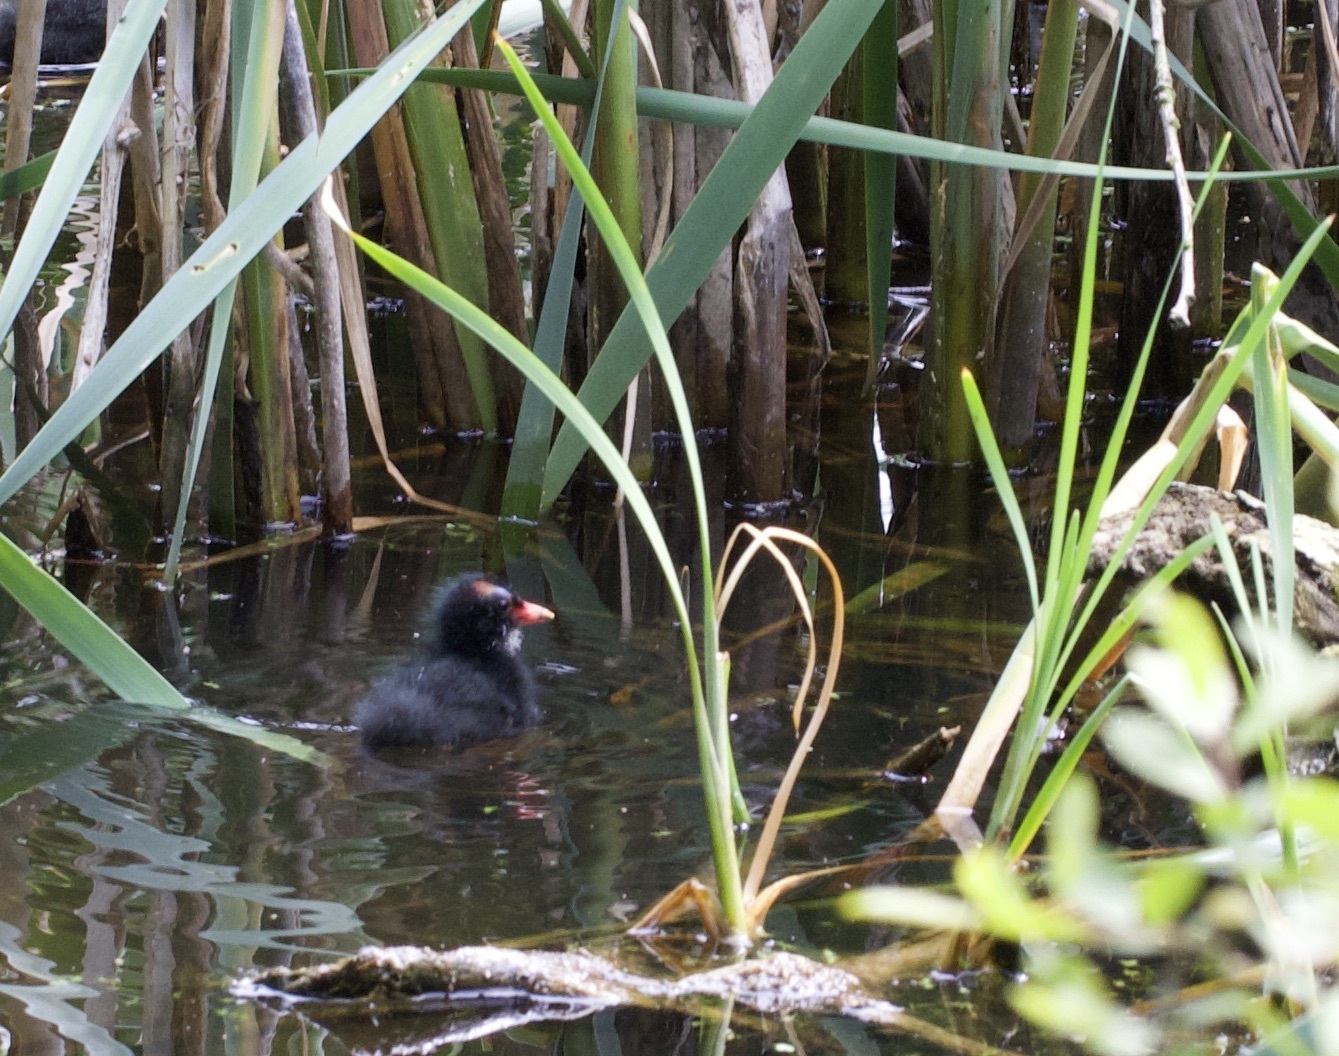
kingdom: Animalia
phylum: Chordata
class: Aves
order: Gruiformes
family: Rallidae
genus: Gallinula
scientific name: Gallinula chloropus
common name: Common moorhen
